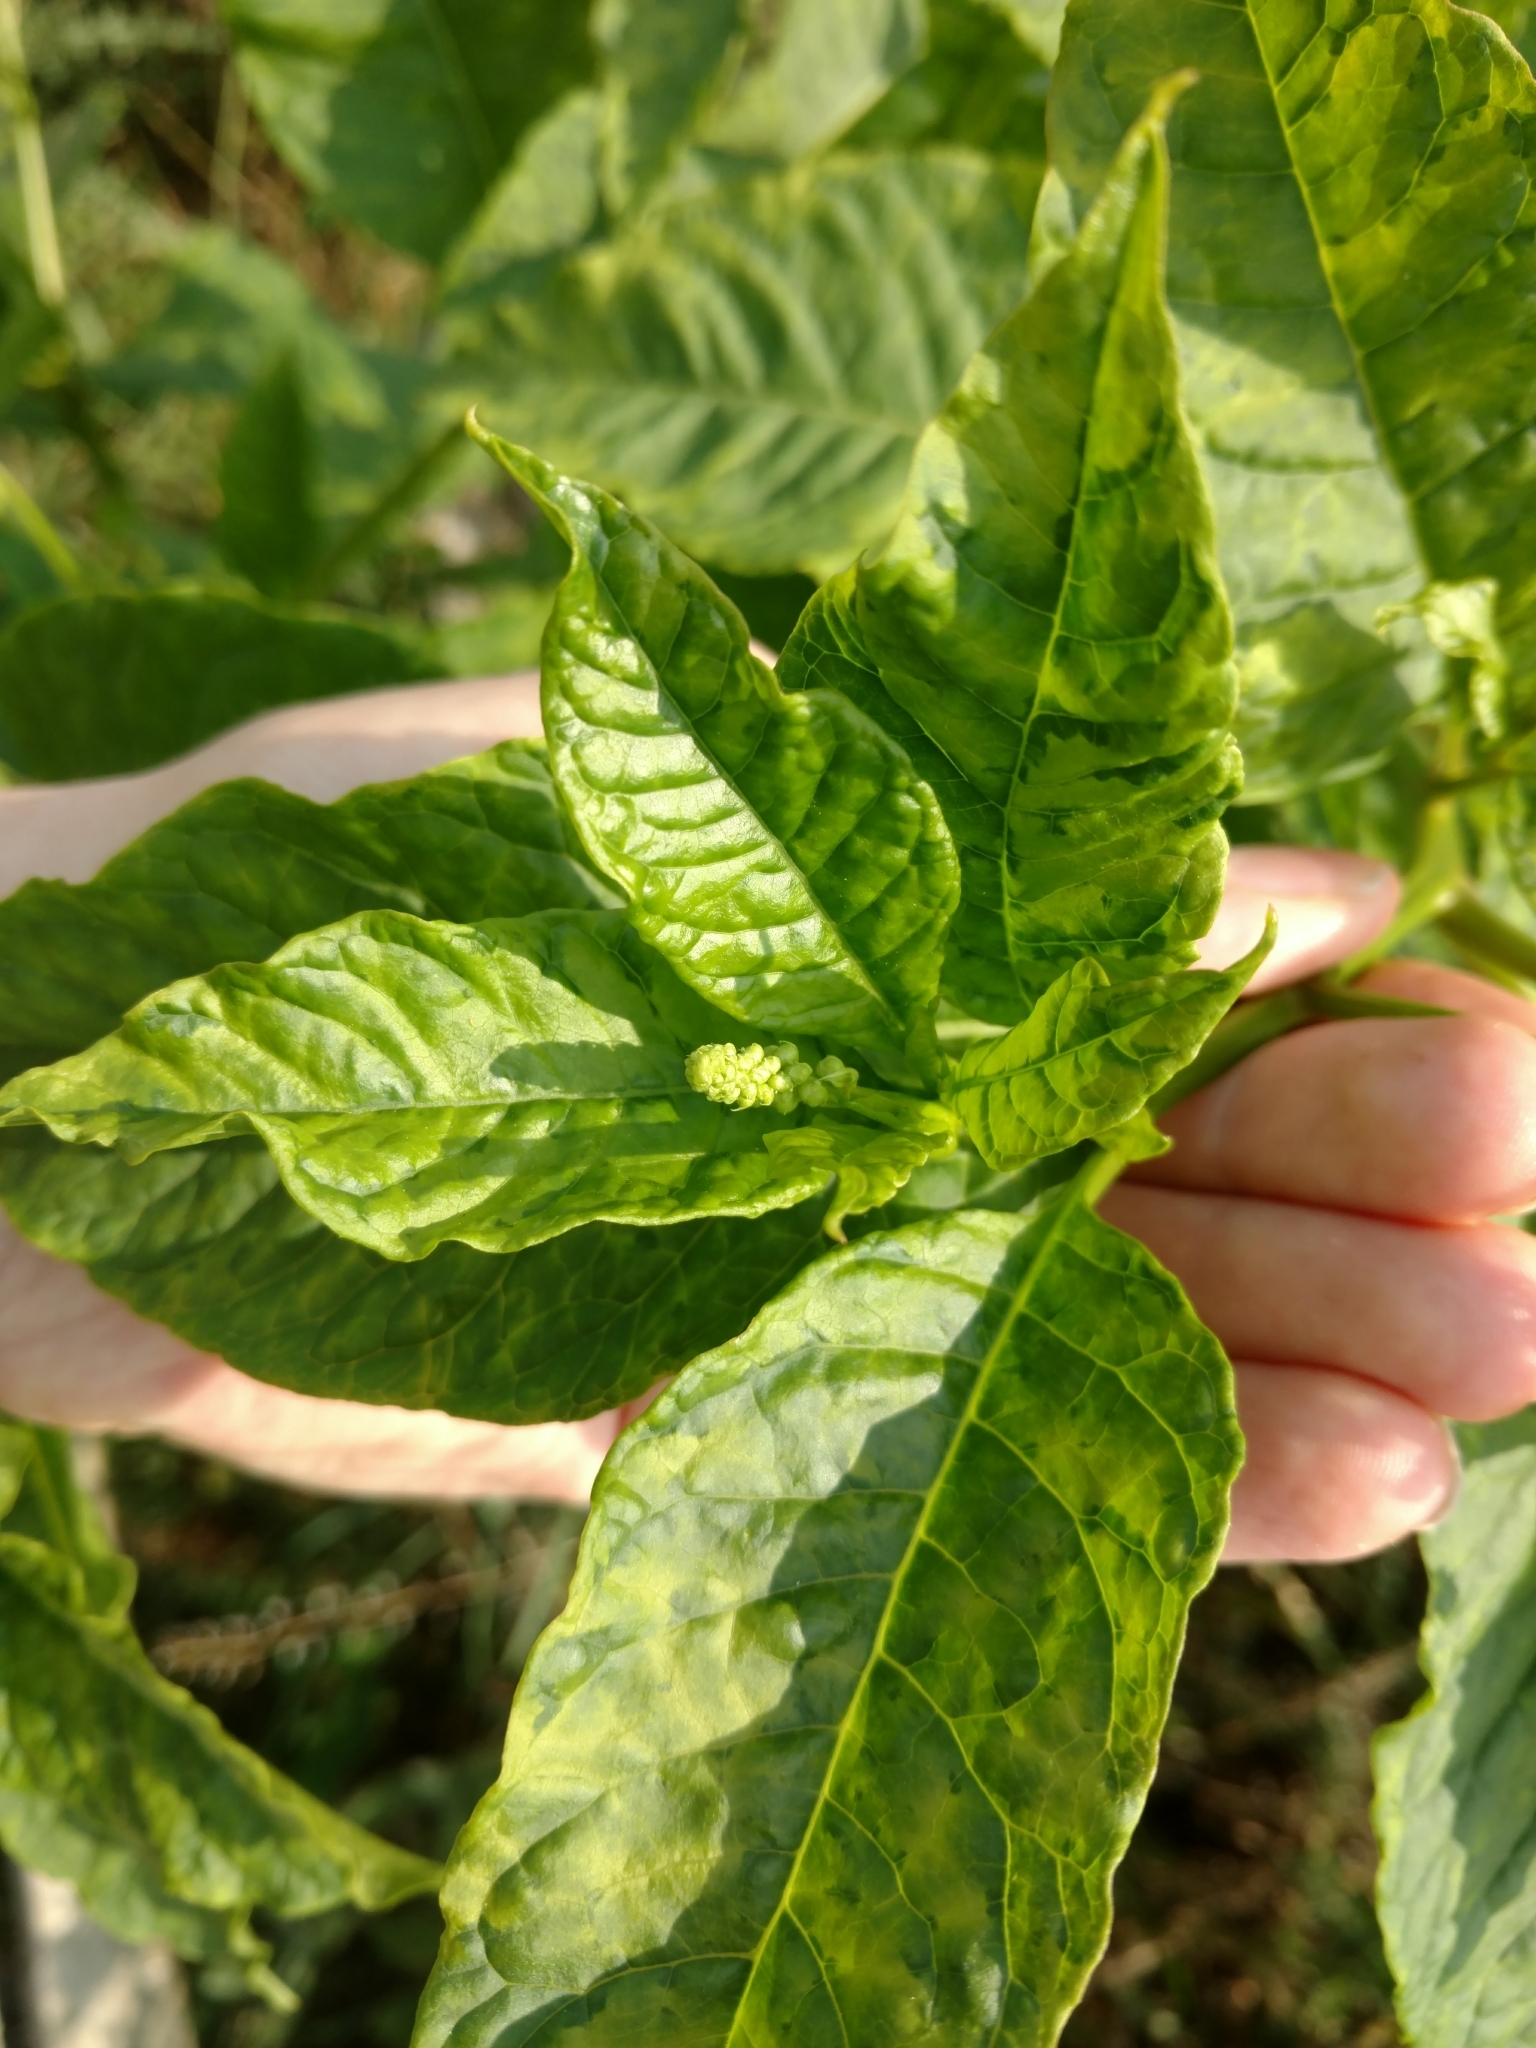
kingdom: Plantae
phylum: Tracheophyta
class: Magnoliopsida
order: Caryophyllales
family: Phytolaccaceae
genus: Phytolacca
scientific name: Phytolacca americana
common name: American pokeweed
